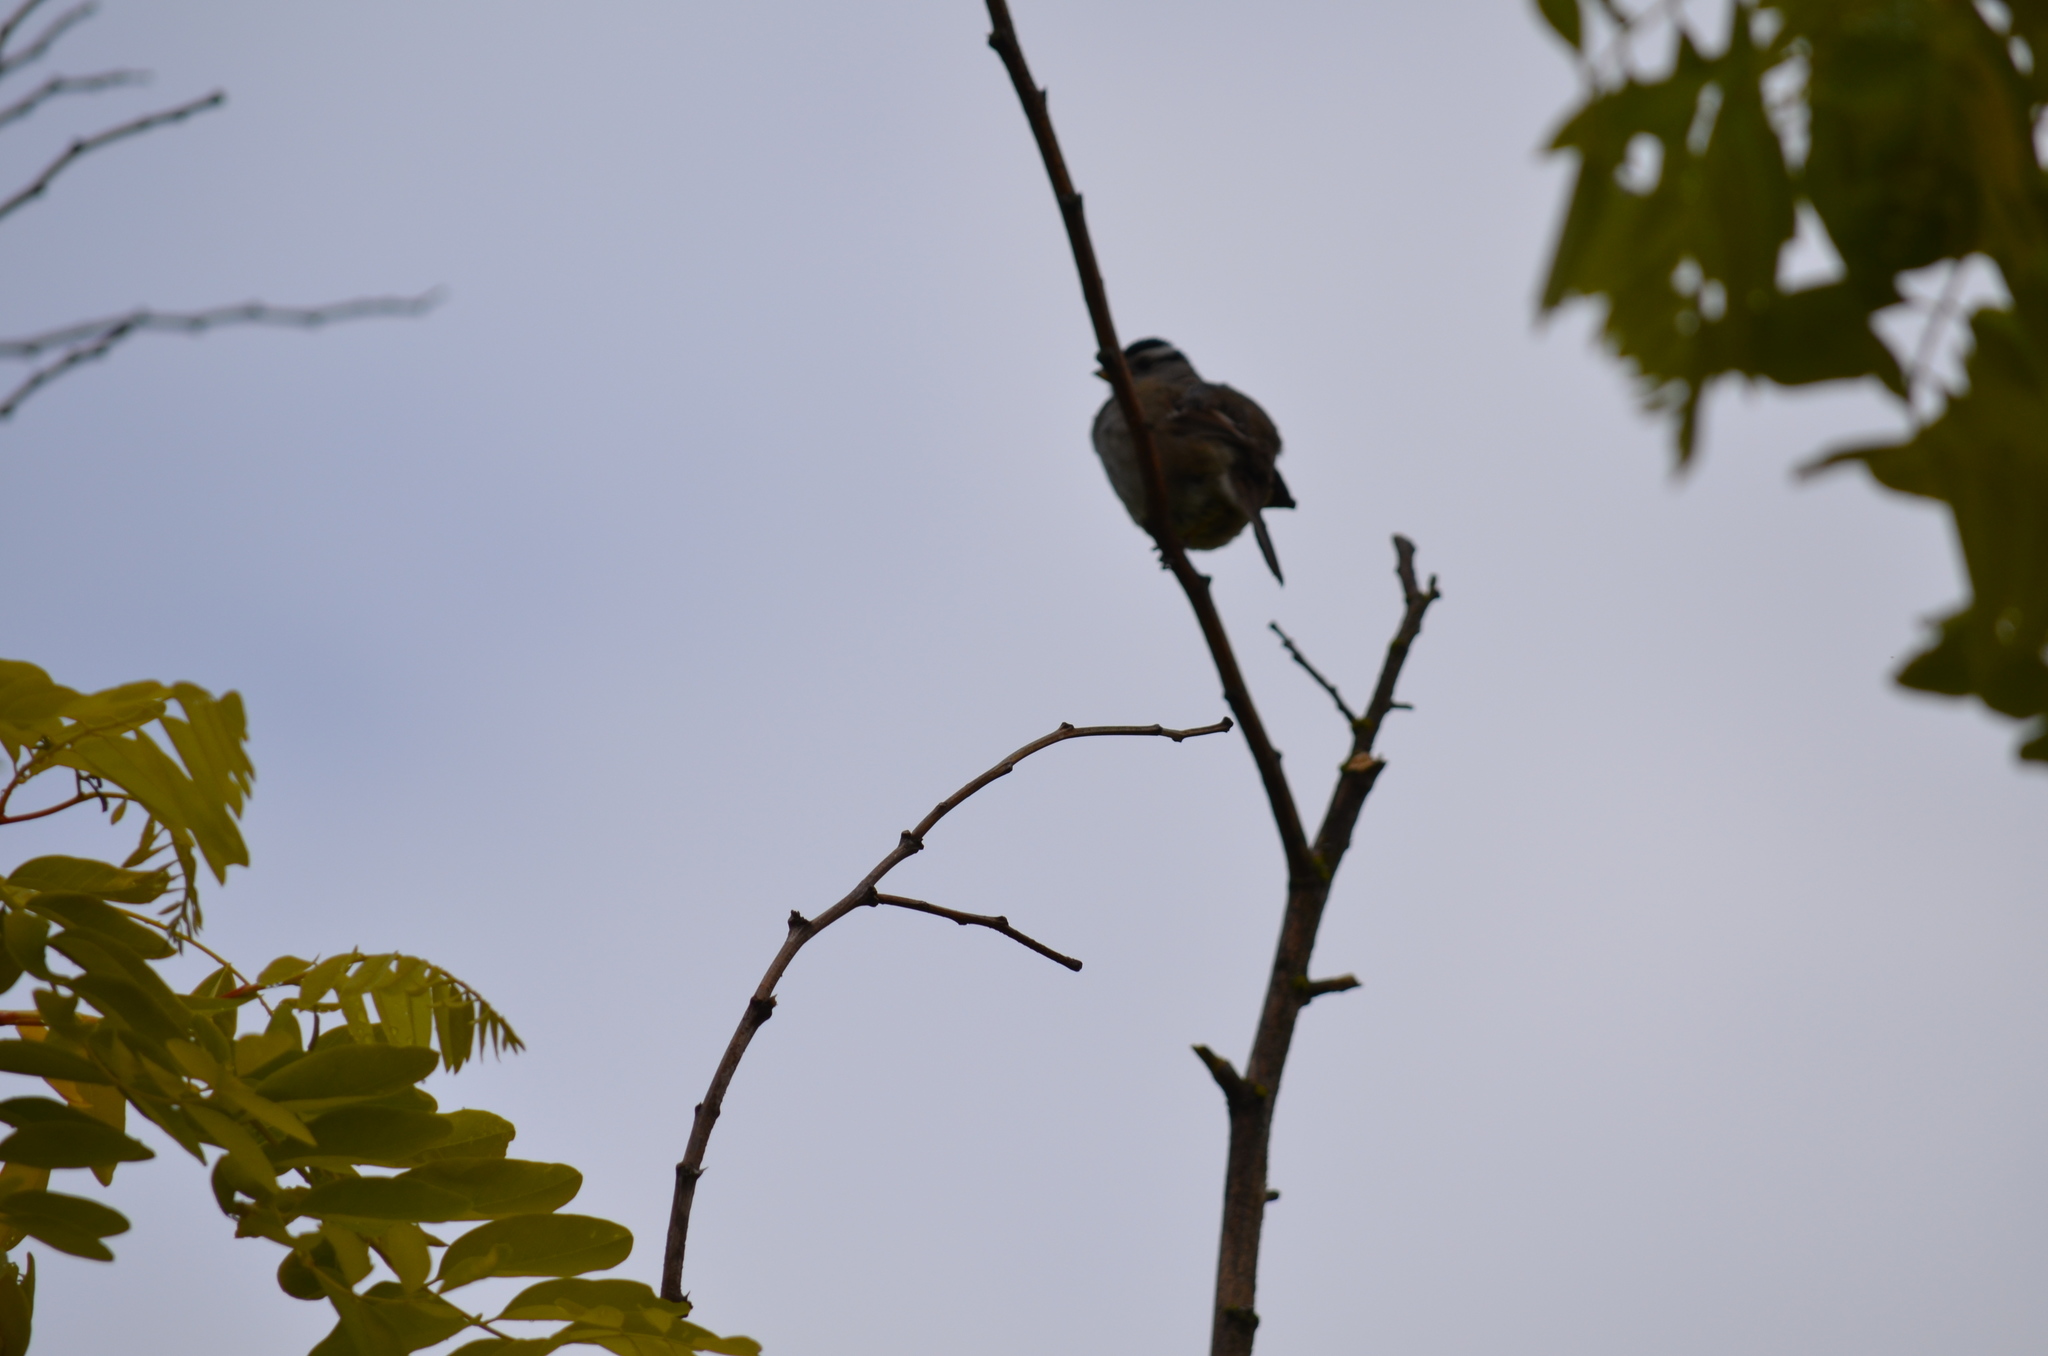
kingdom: Animalia
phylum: Chordata
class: Aves
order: Passeriformes
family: Passerellidae
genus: Zonotrichia
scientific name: Zonotrichia leucophrys
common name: White-crowned sparrow
